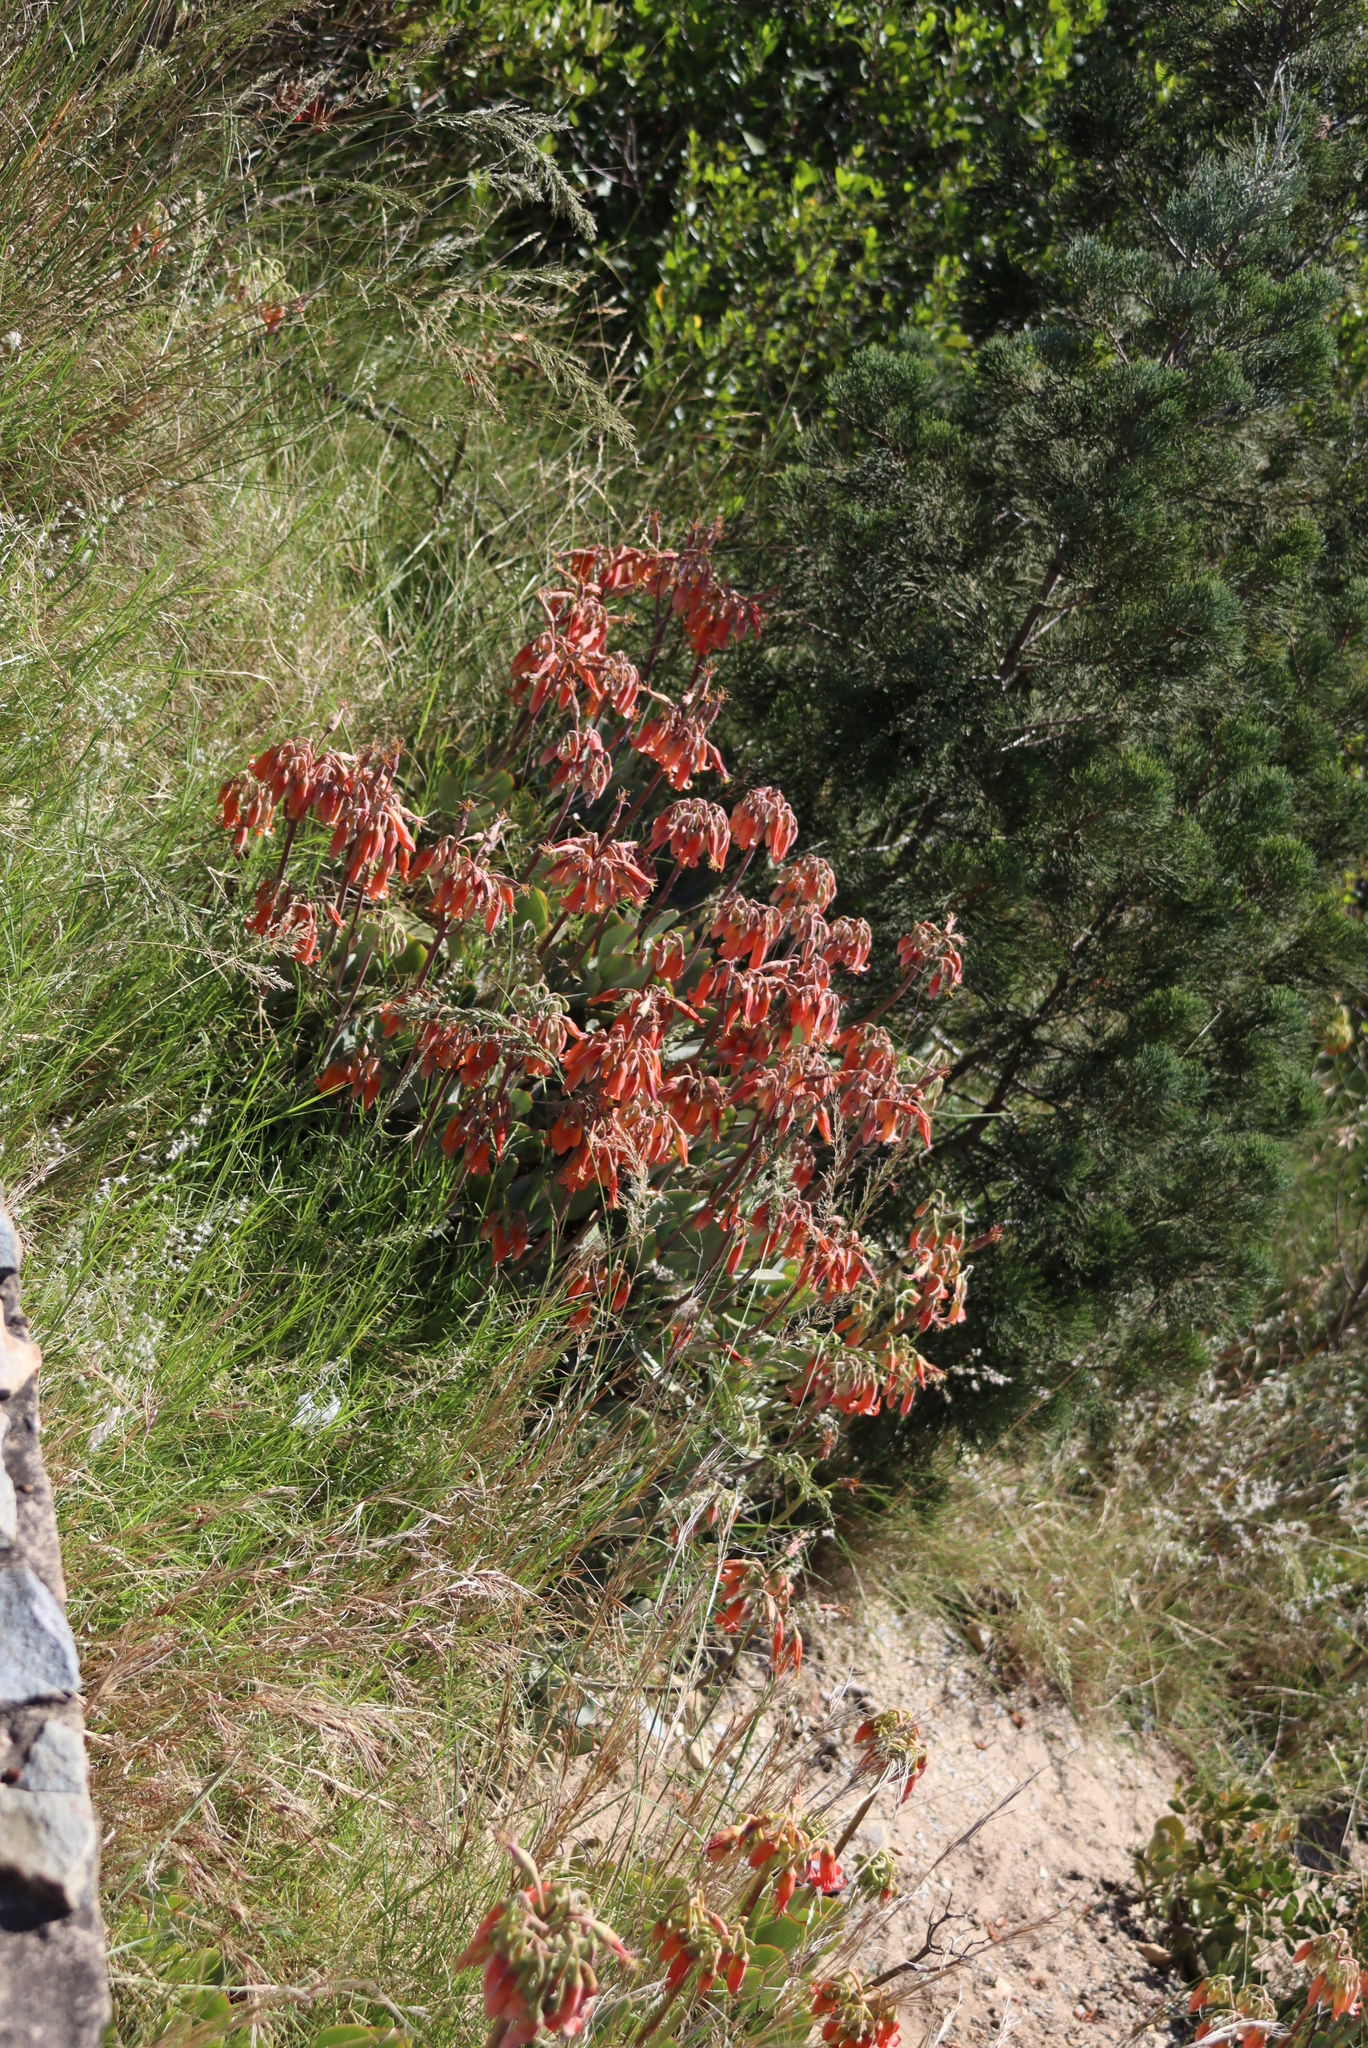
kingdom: Plantae
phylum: Tracheophyta
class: Magnoliopsida
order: Saxifragales
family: Crassulaceae
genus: Cotyledon
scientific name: Cotyledon orbiculata
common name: Pig's ear
